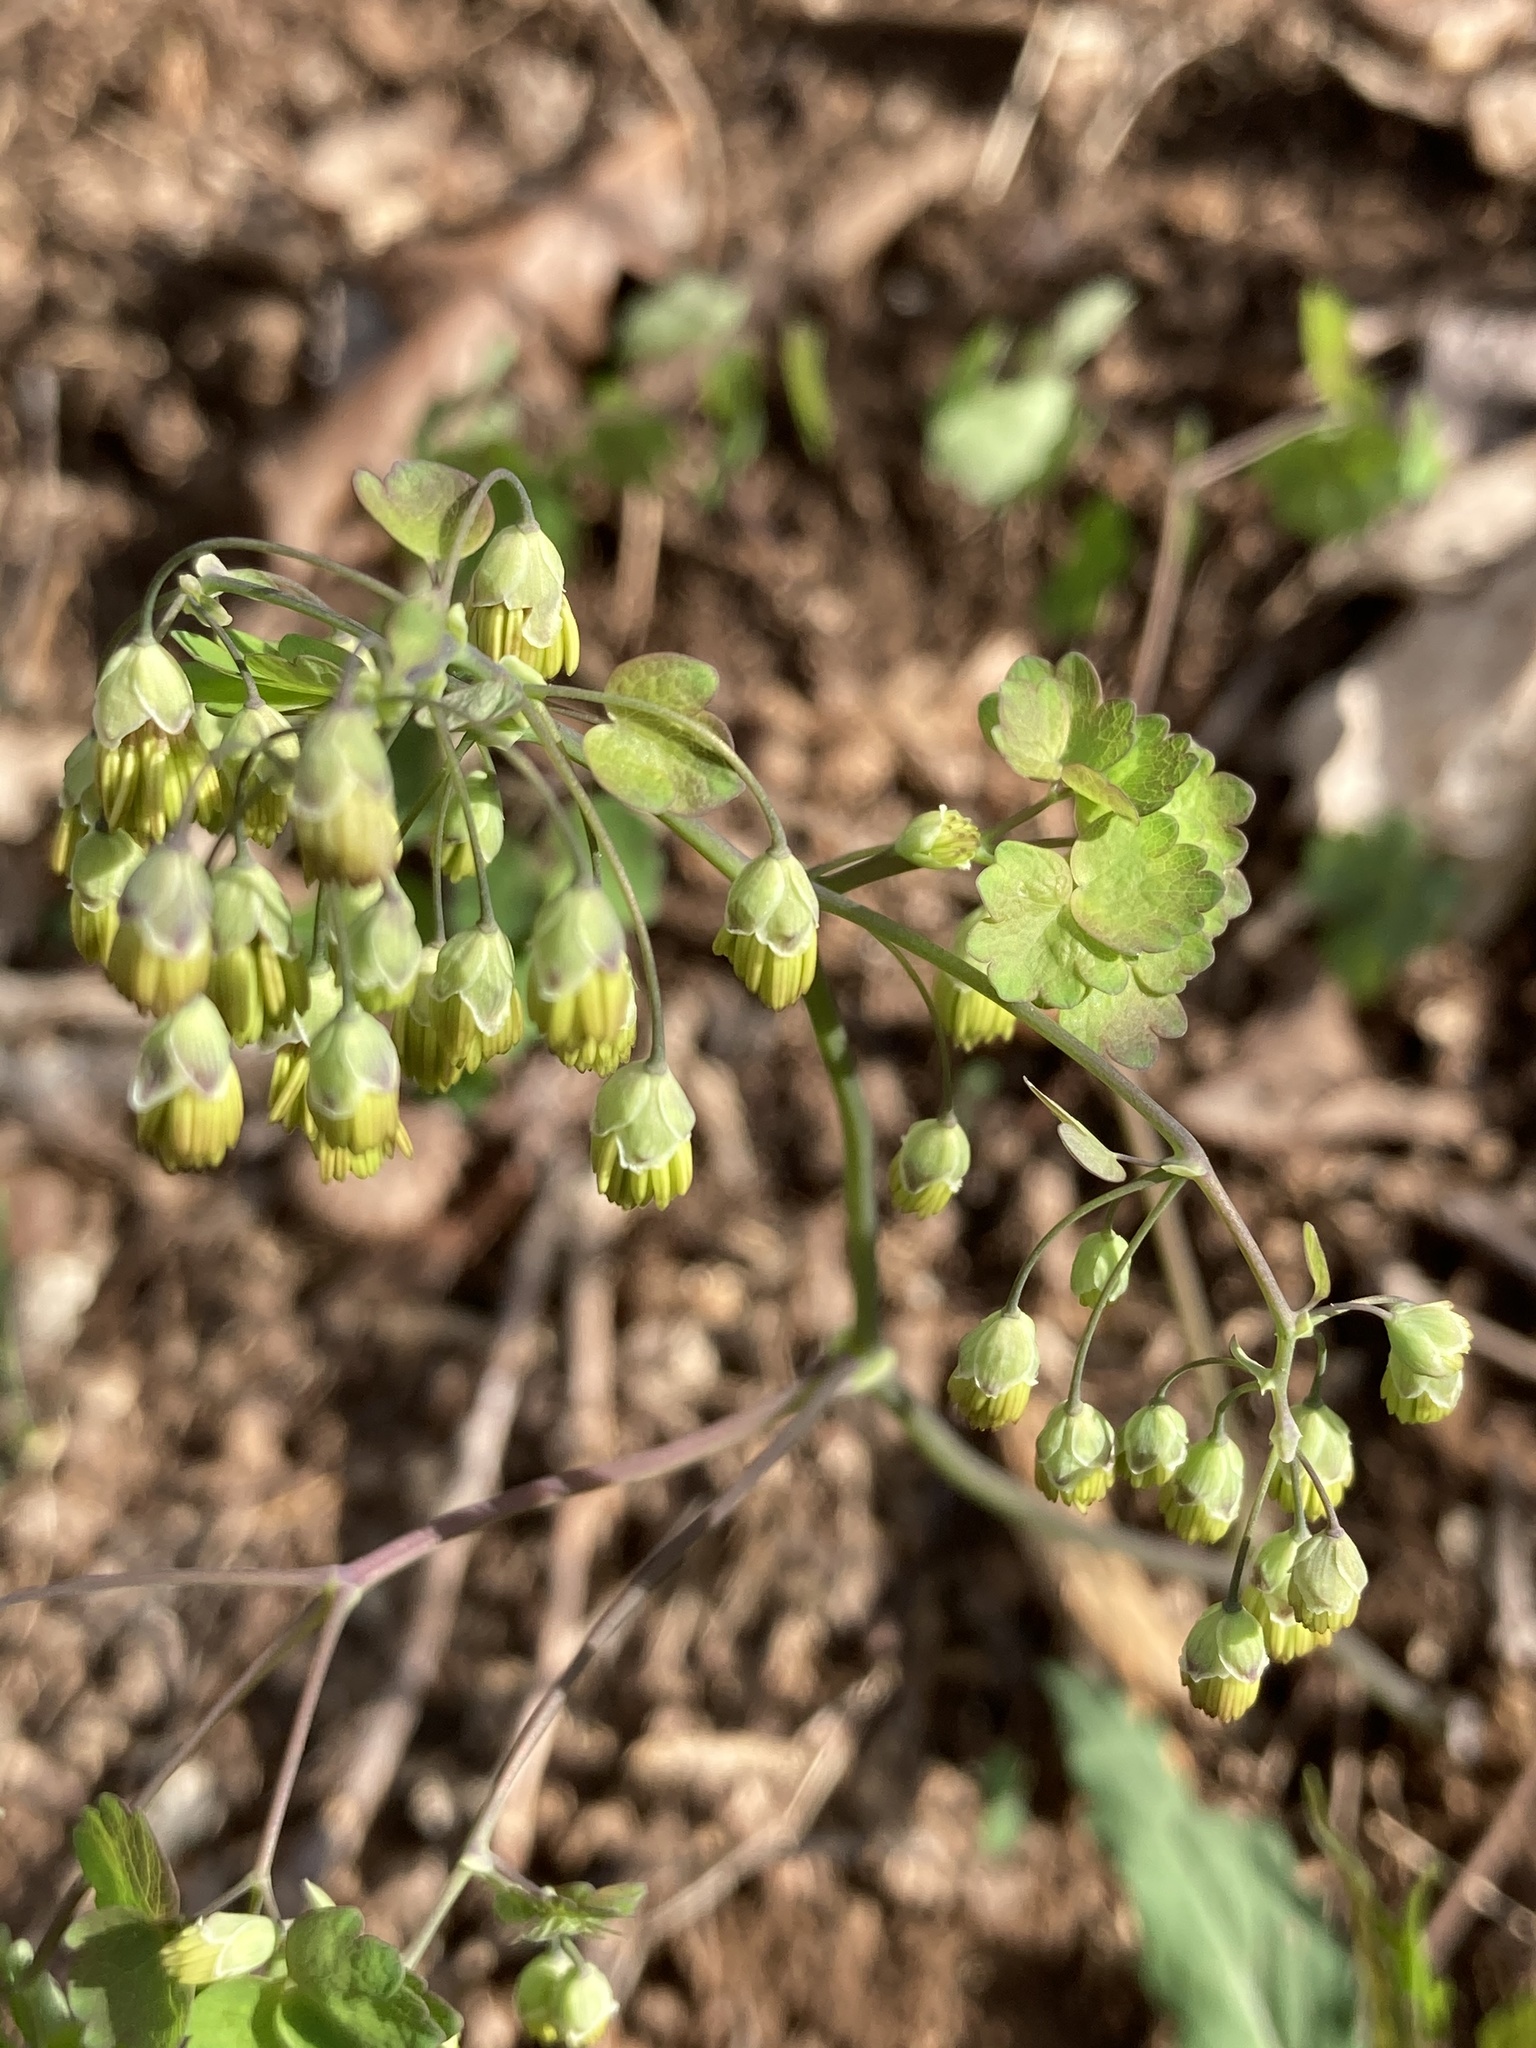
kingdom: Plantae
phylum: Tracheophyta
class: Magnoliopsida
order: Ranunculales
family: Ranunculaceae
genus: Thalictrum
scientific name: Thalictrum dioicum
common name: Early meadow-rue
